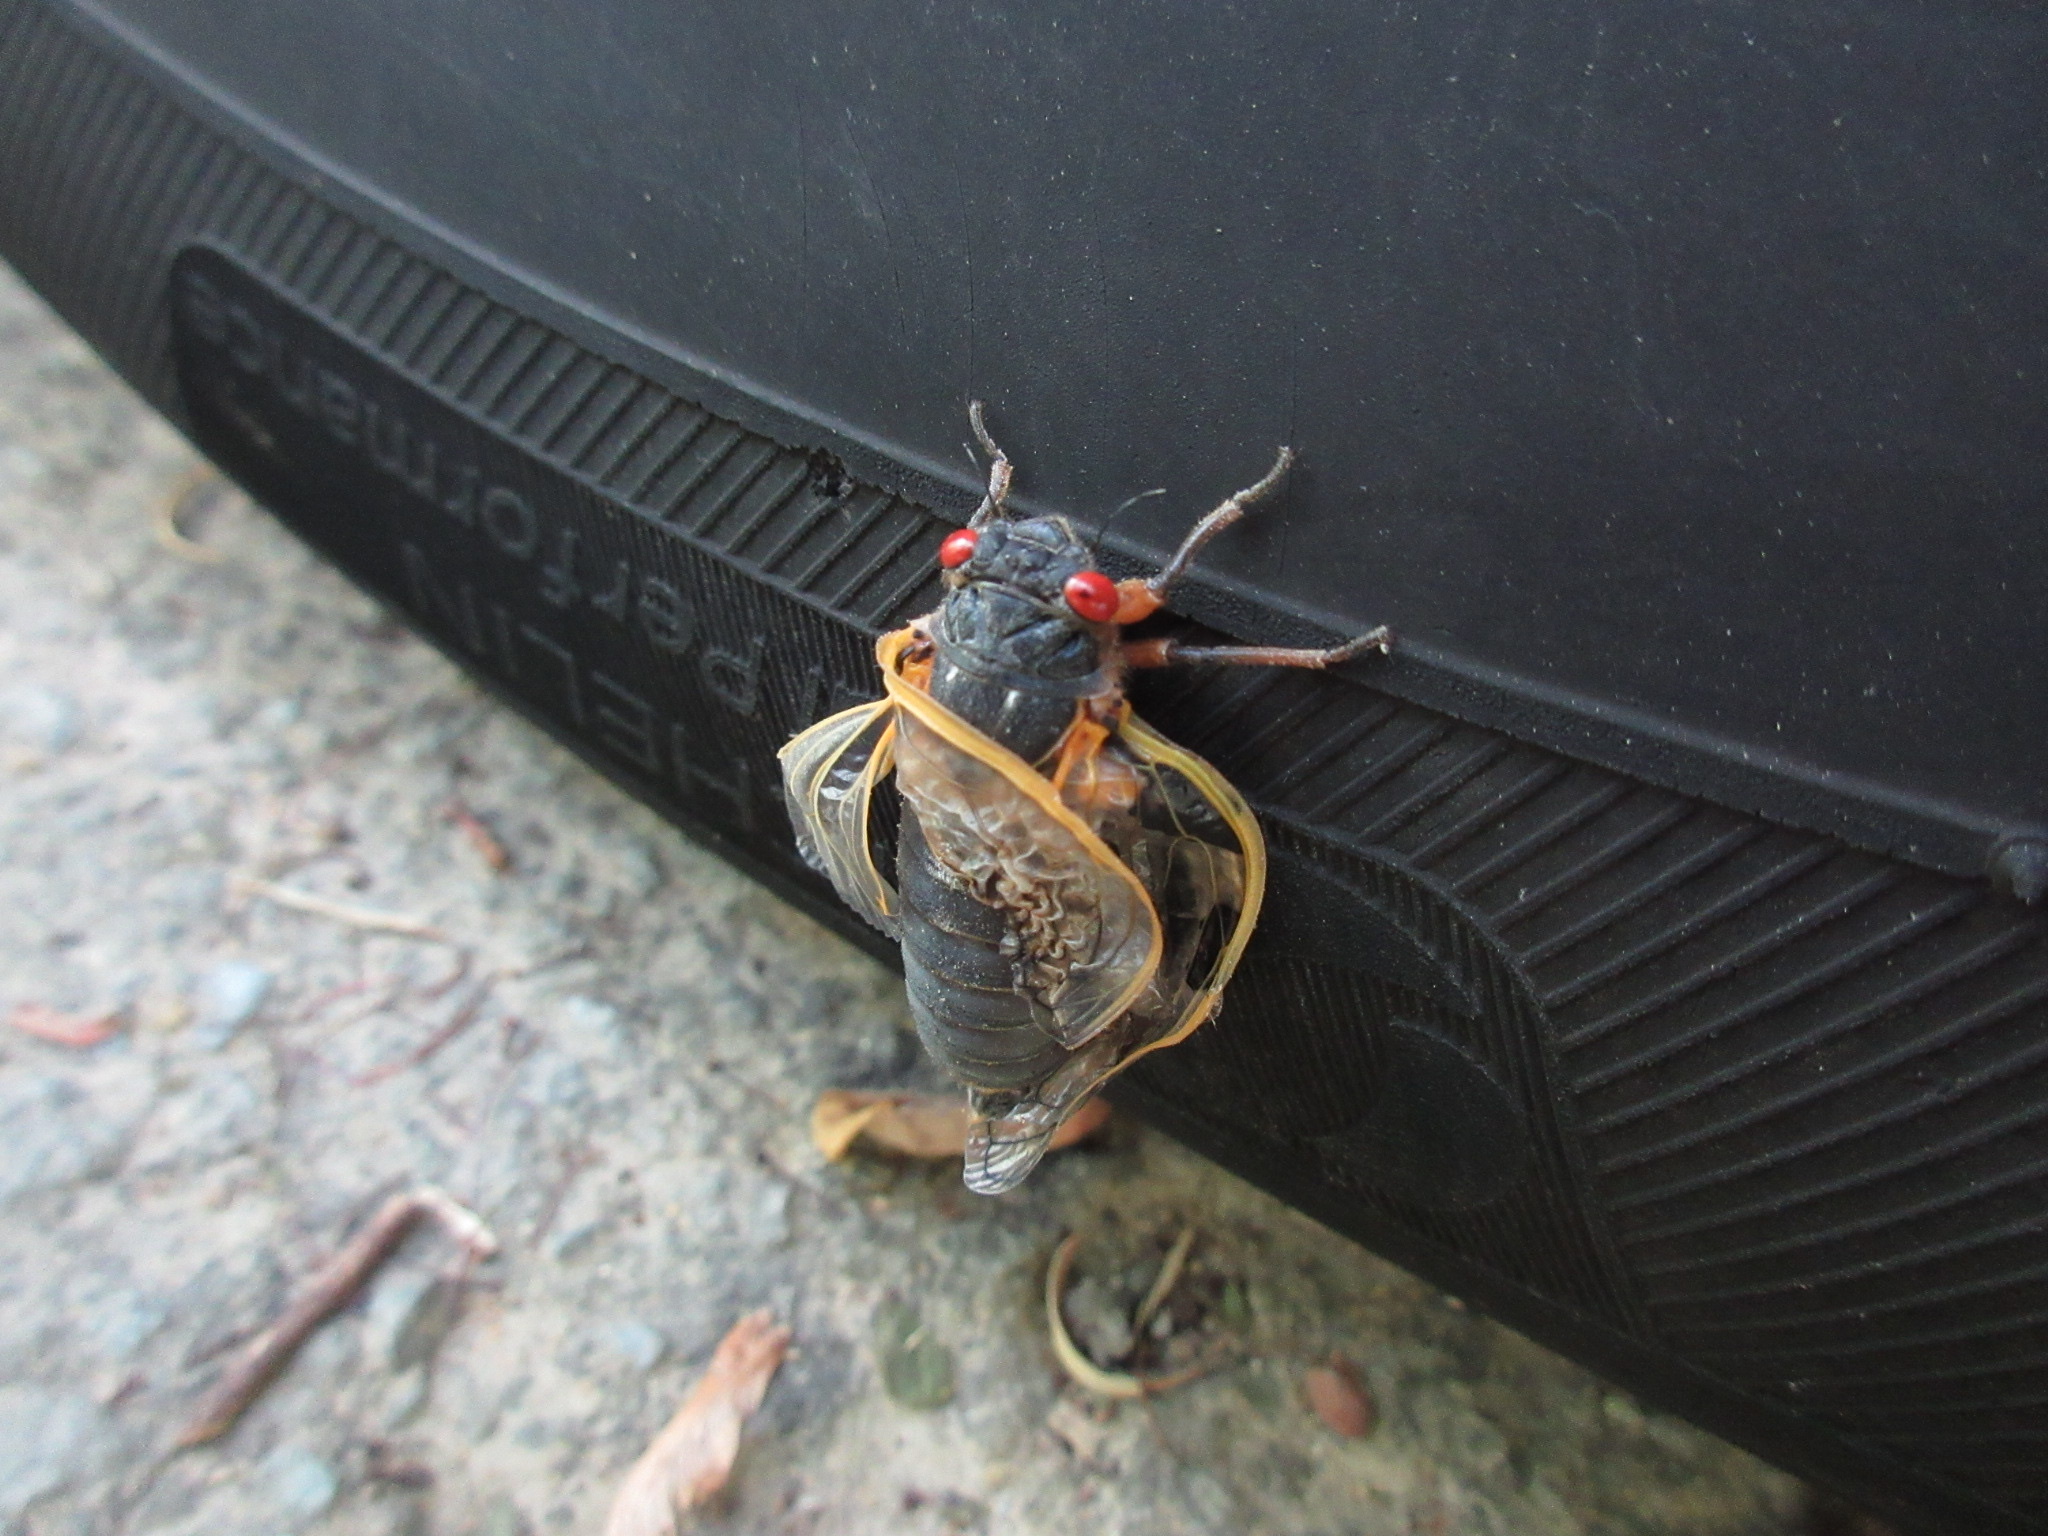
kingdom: Animalia
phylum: Arthropoda
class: Insecta
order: Hemiptera
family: Cicadidae
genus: Magicicada
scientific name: Magicicada septendecim
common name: Periodical cicada
